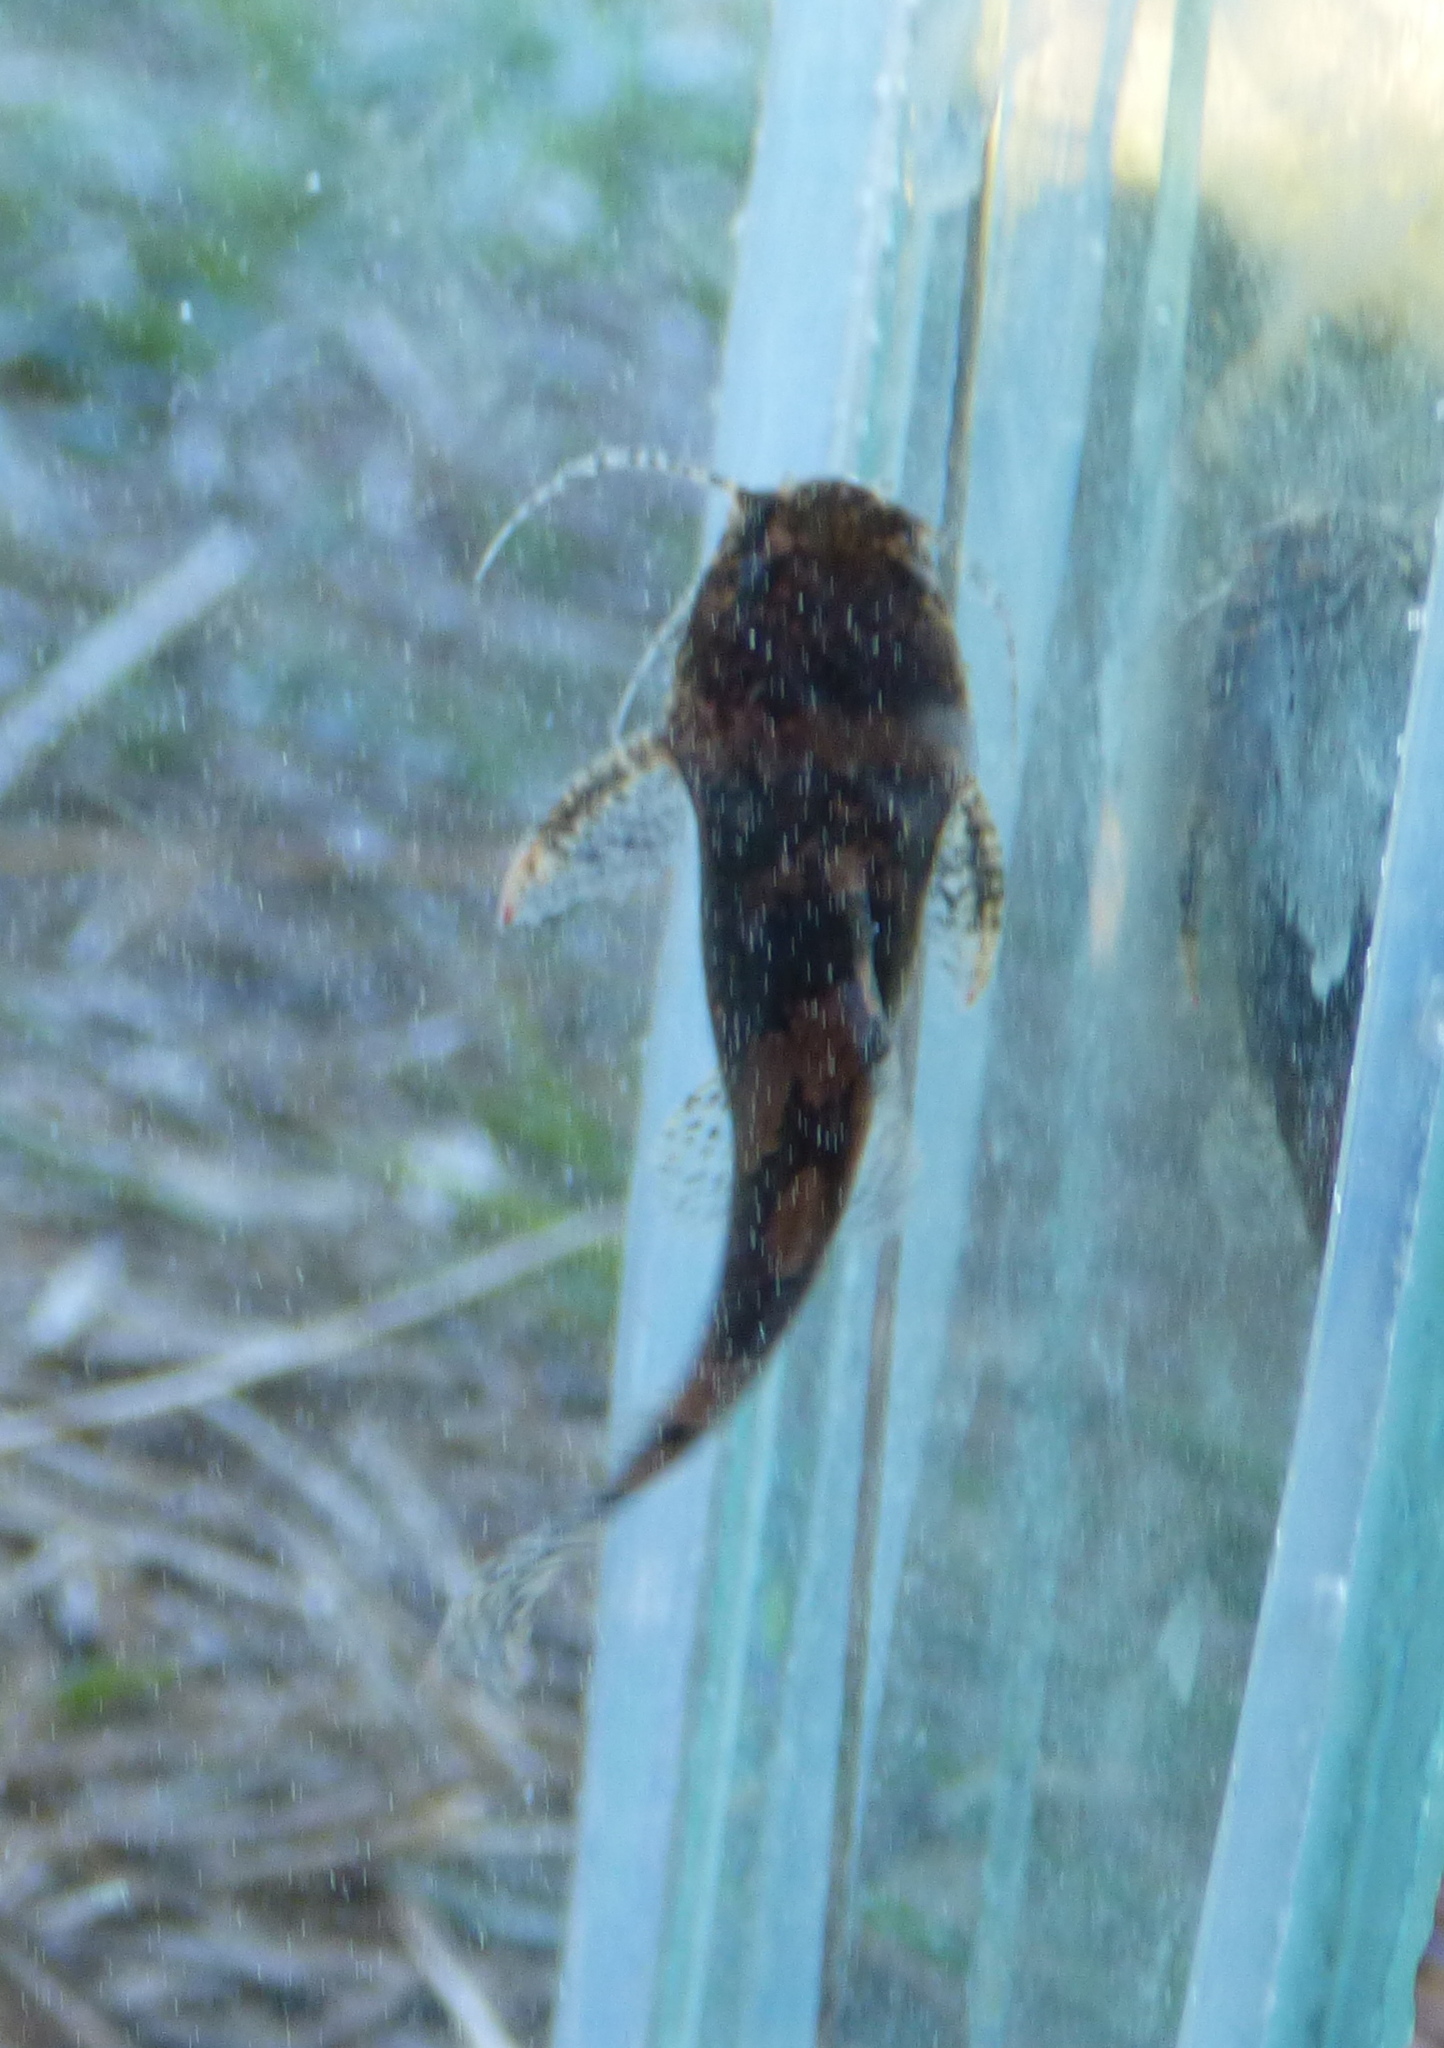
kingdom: Animalia
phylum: Chordata
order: Siluriformes
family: Pseudopimelodidae
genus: Microglanis
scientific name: Microglanis carlae
